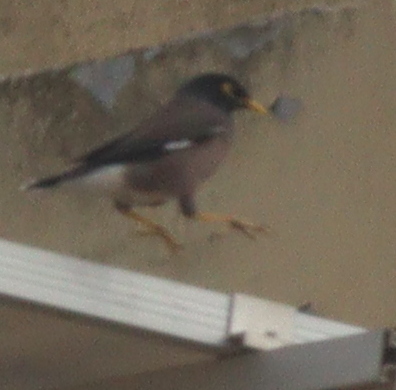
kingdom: Animalia
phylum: Chordata
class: Aves
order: Passeriformes
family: Sturnidae
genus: Acridotheres
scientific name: Acridotheres tristis
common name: Common myna
